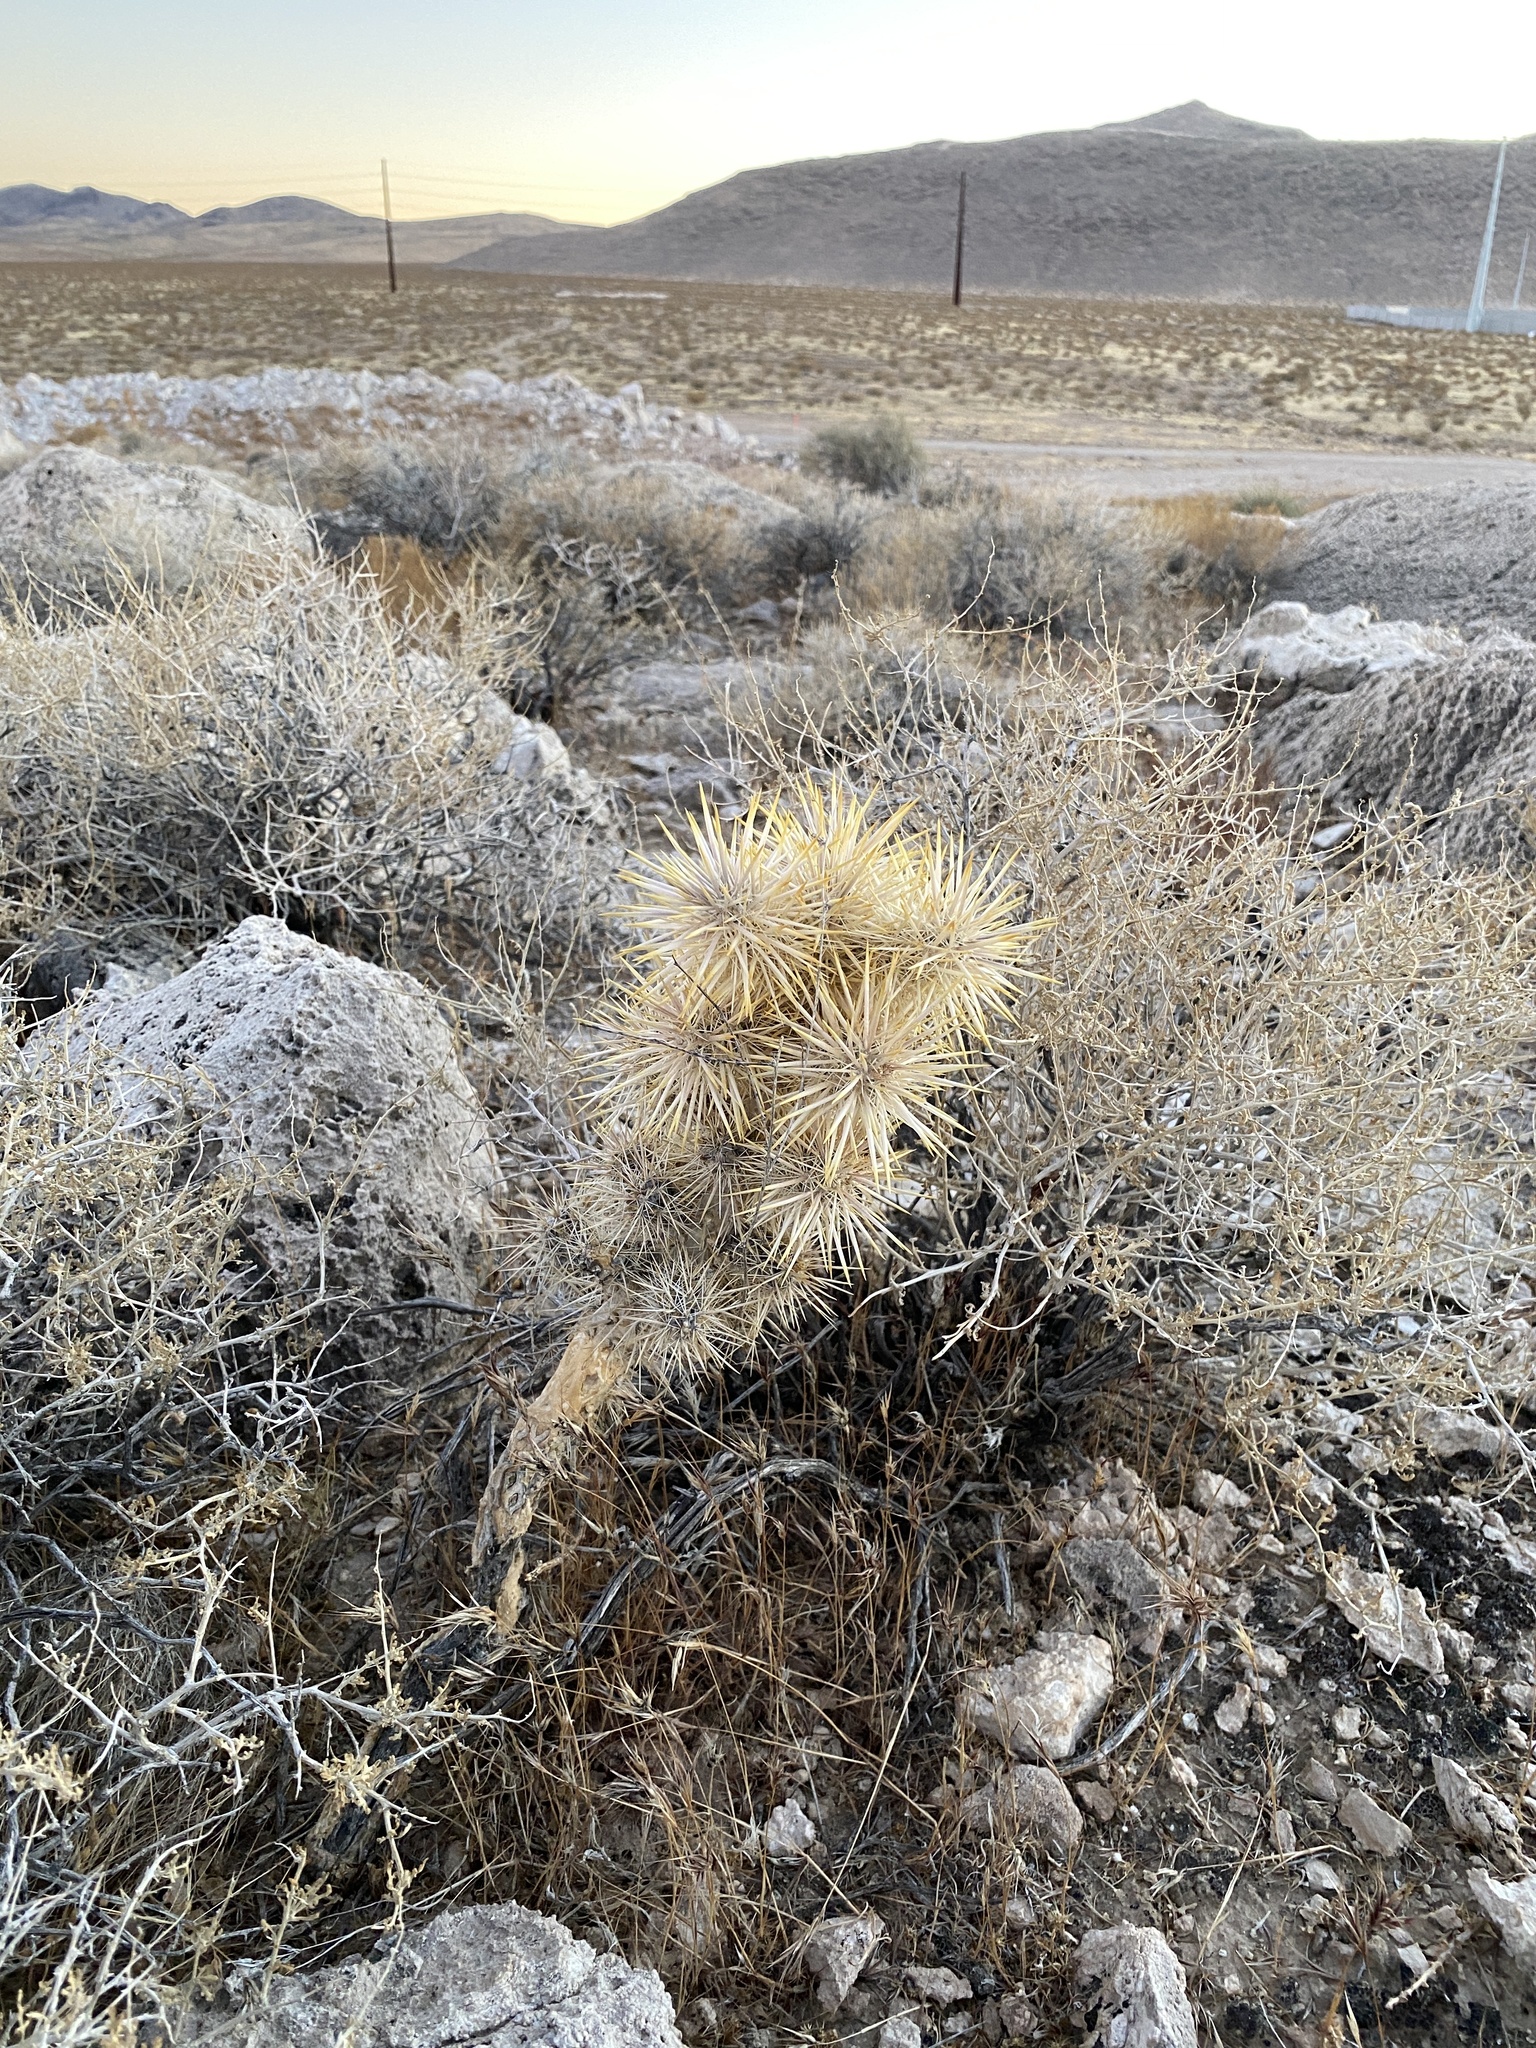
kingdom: Plantae
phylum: Tracheophyta
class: Magnoliopsida
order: Caryophyllales
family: Cactaceae
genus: Cylindropuntia
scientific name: Cylindropuntia echinocarpa
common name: Ground cholla
